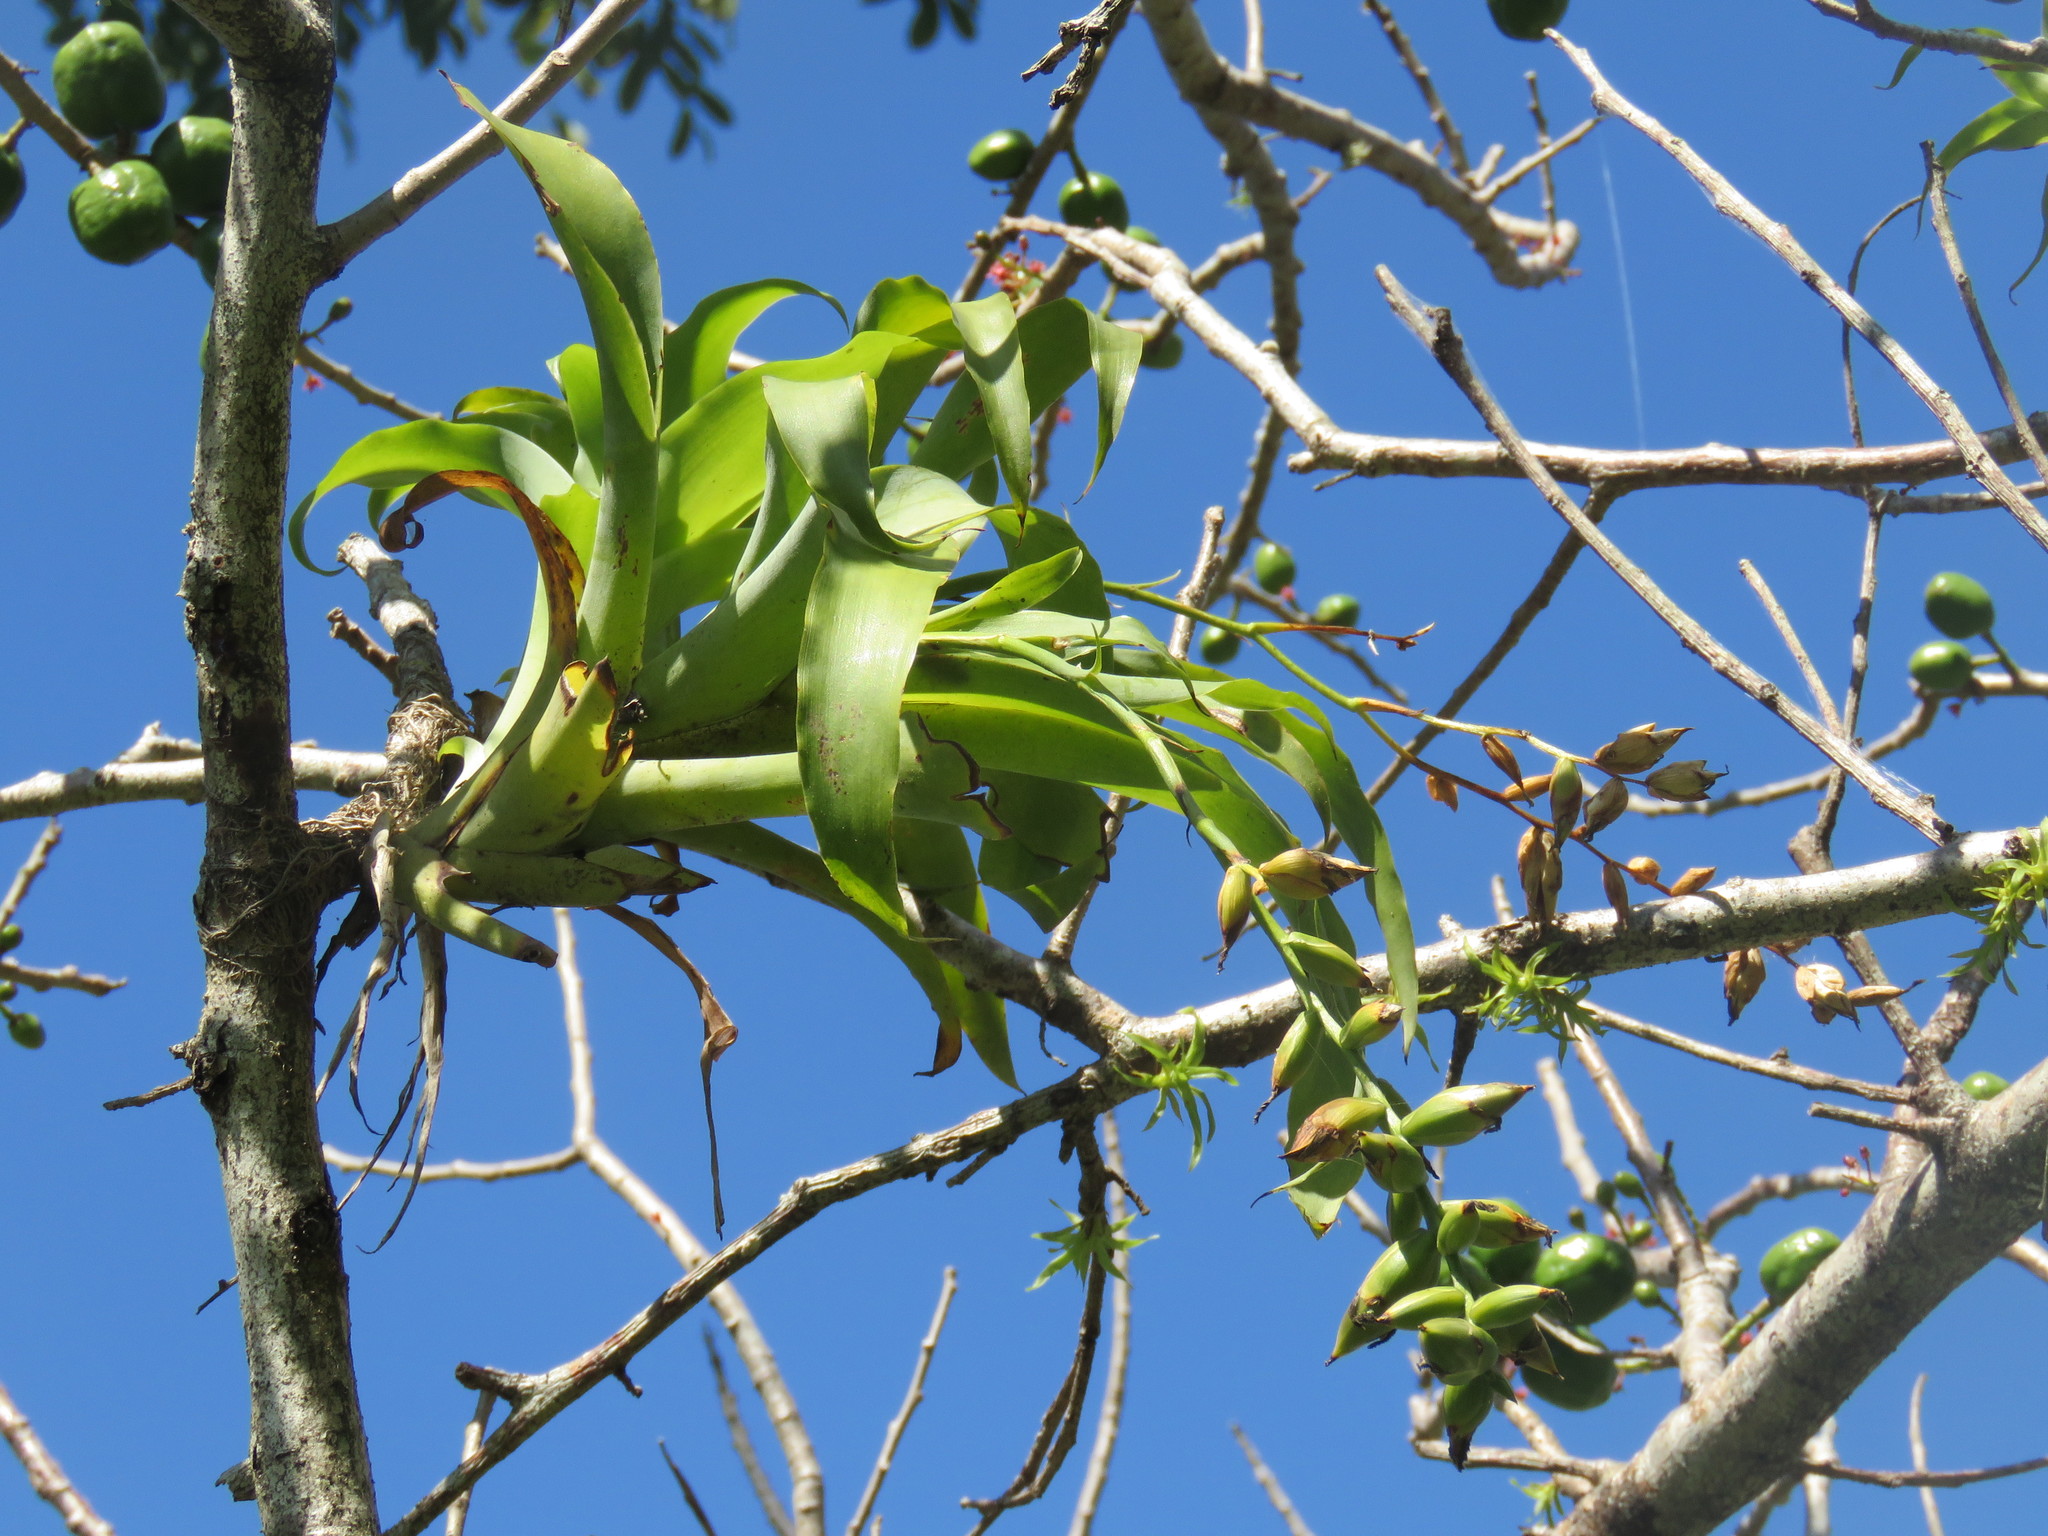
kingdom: Plantae
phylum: Tracheophyta
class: Liliopsida
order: Poales
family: Bromeliaceae
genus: Catopsis
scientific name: Catopsis nutans
